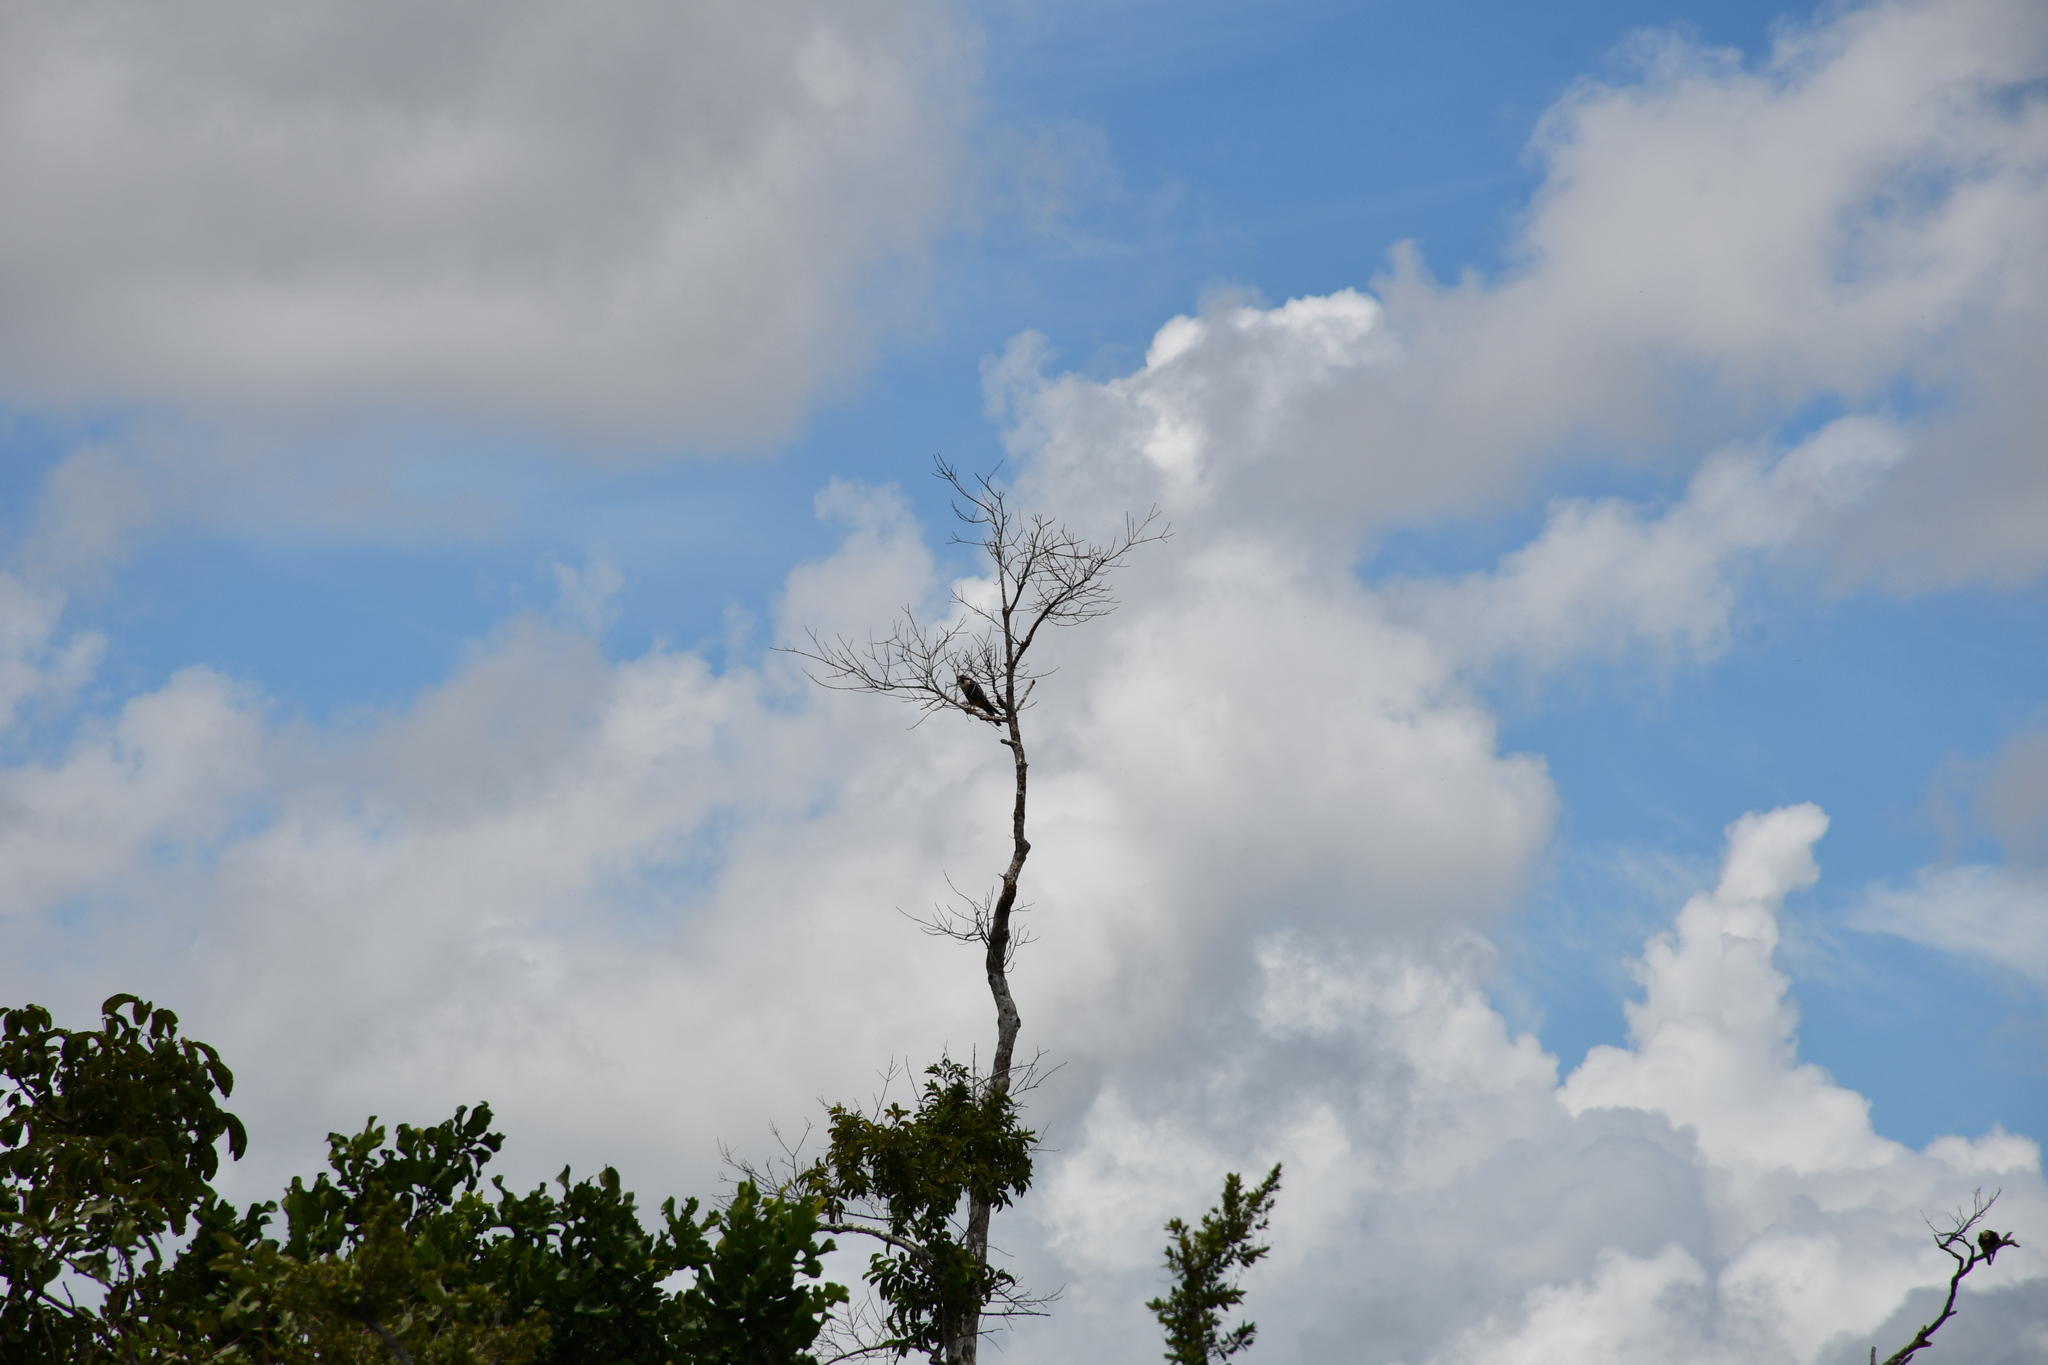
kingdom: Animalia
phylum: Chordata
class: Aves
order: Falconiformes
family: Falconidae
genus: Falco
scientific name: Falco femoralis
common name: Aplomado falcon
